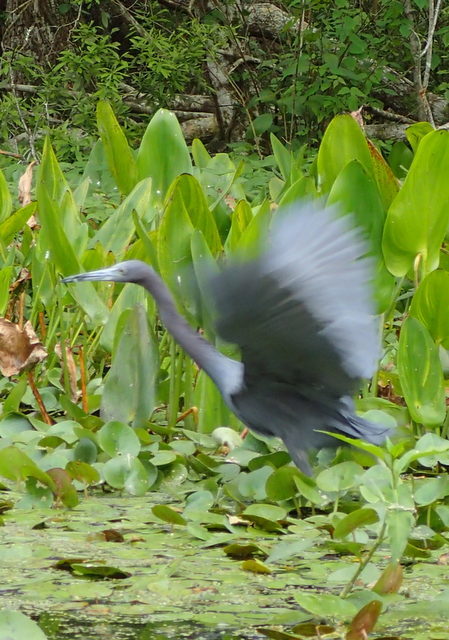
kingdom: Animalia
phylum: Chordata
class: Aves
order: Pelecaniformes
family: Ardeidae
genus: Egretta
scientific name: Egretta caerulea
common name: Little blue heron
